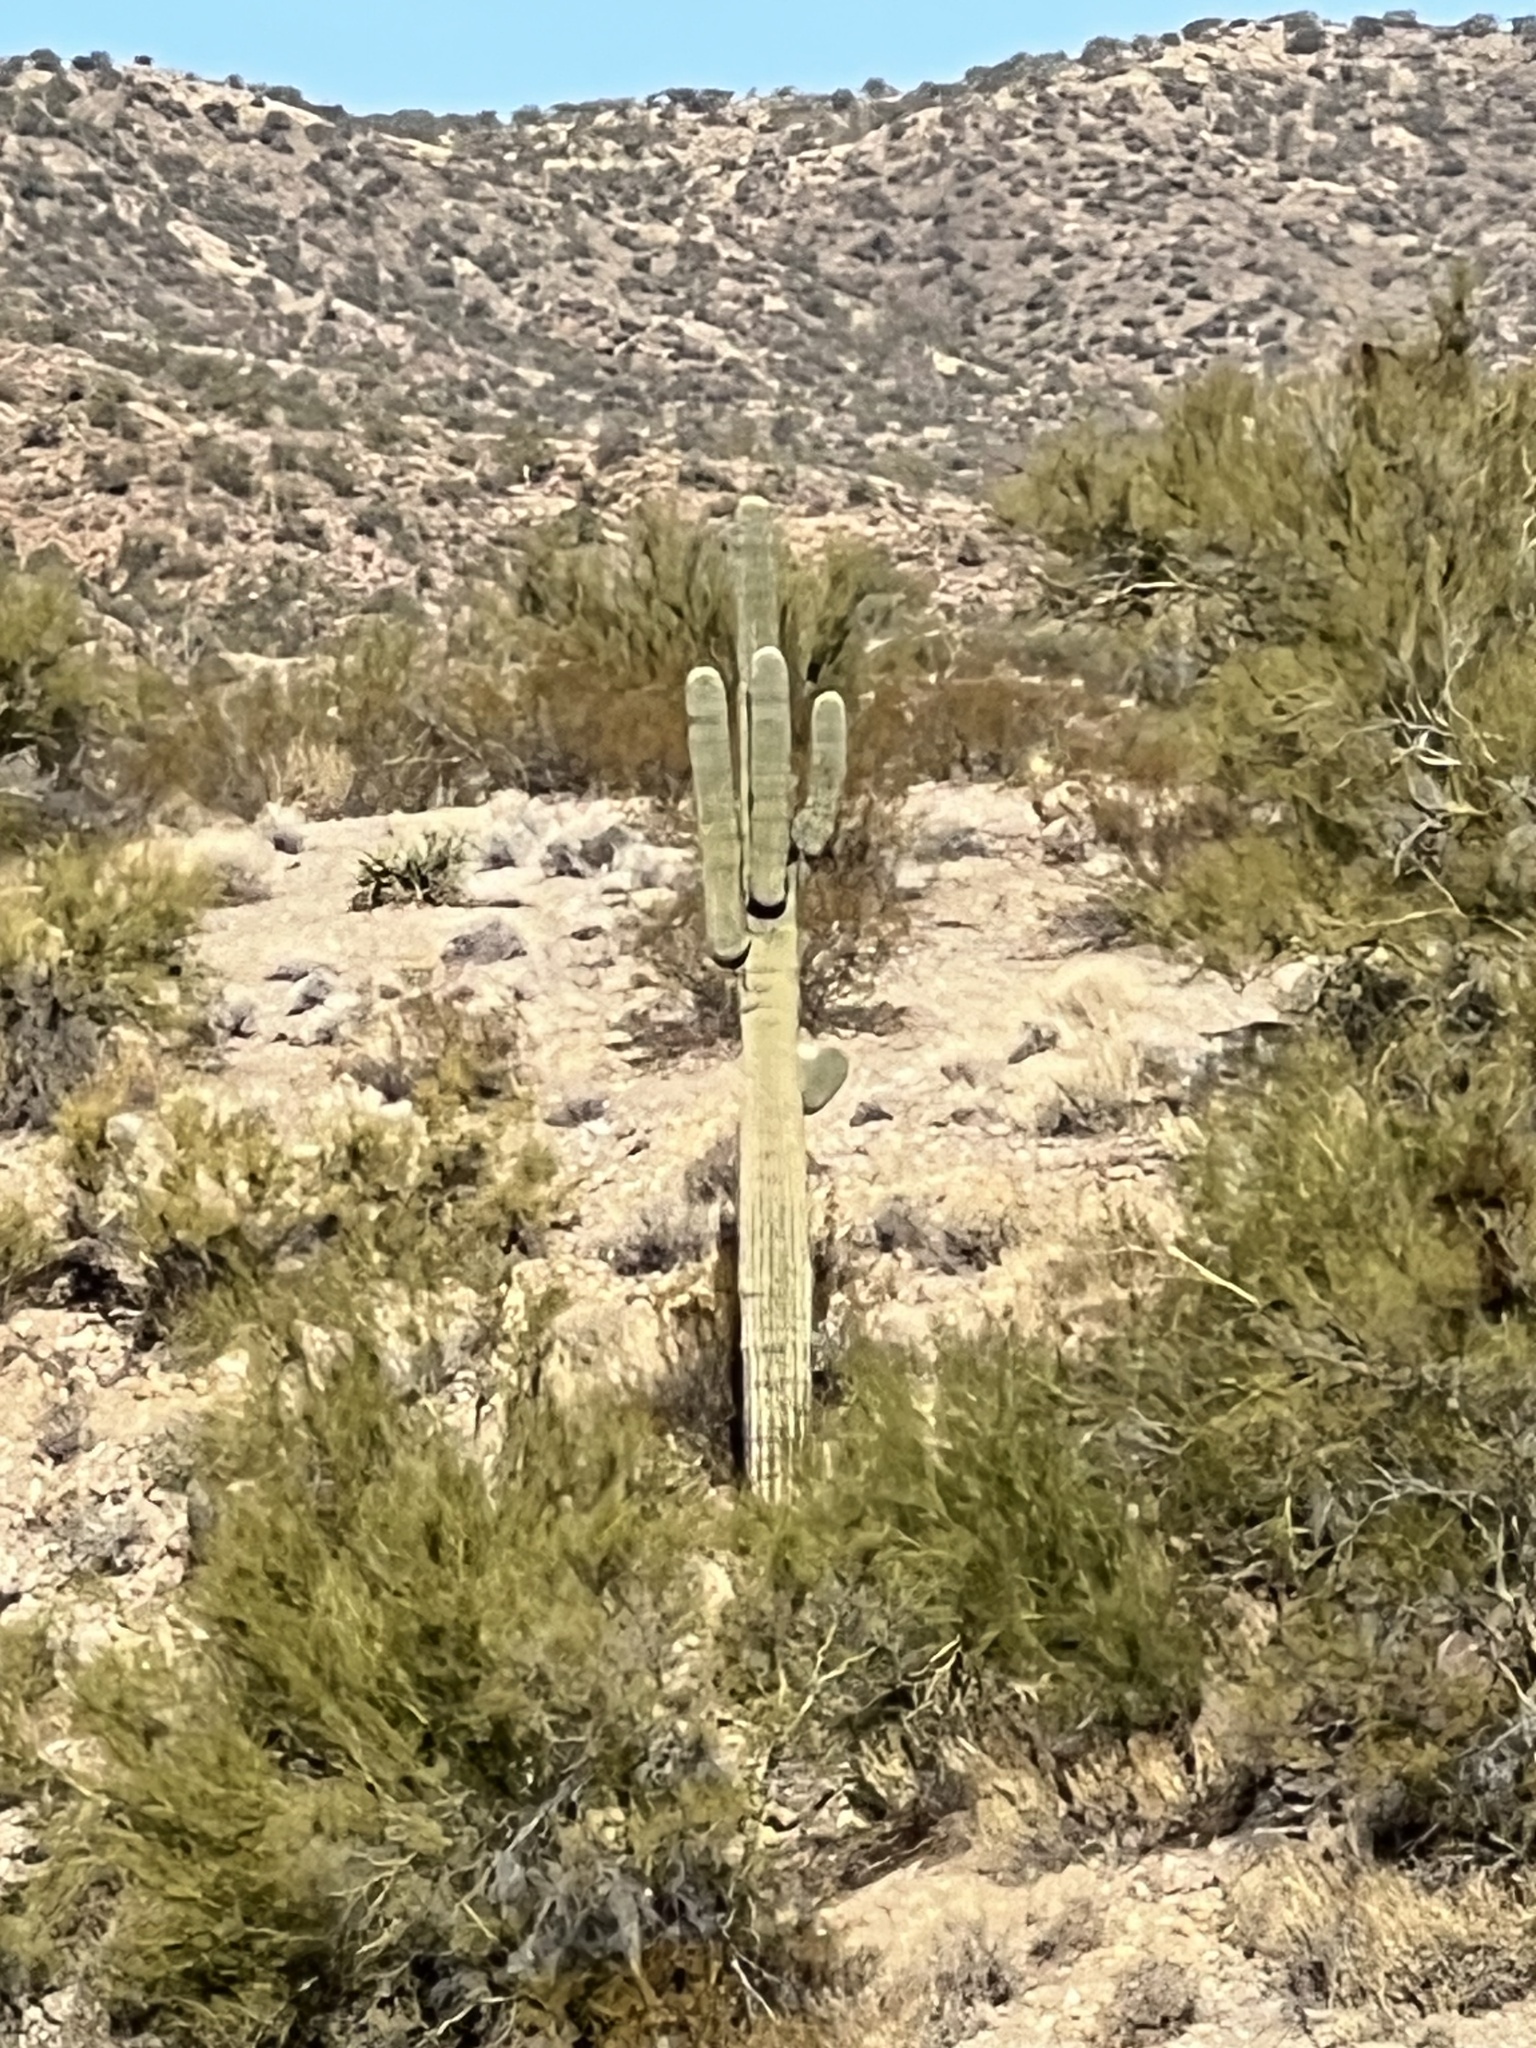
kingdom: Plantae
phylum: Tracheophyta
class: Magnoliopsida
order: Caryophyllales
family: Cactaceae
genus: Carnegiea
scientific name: Carnegiea gigantea
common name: Saguaro
